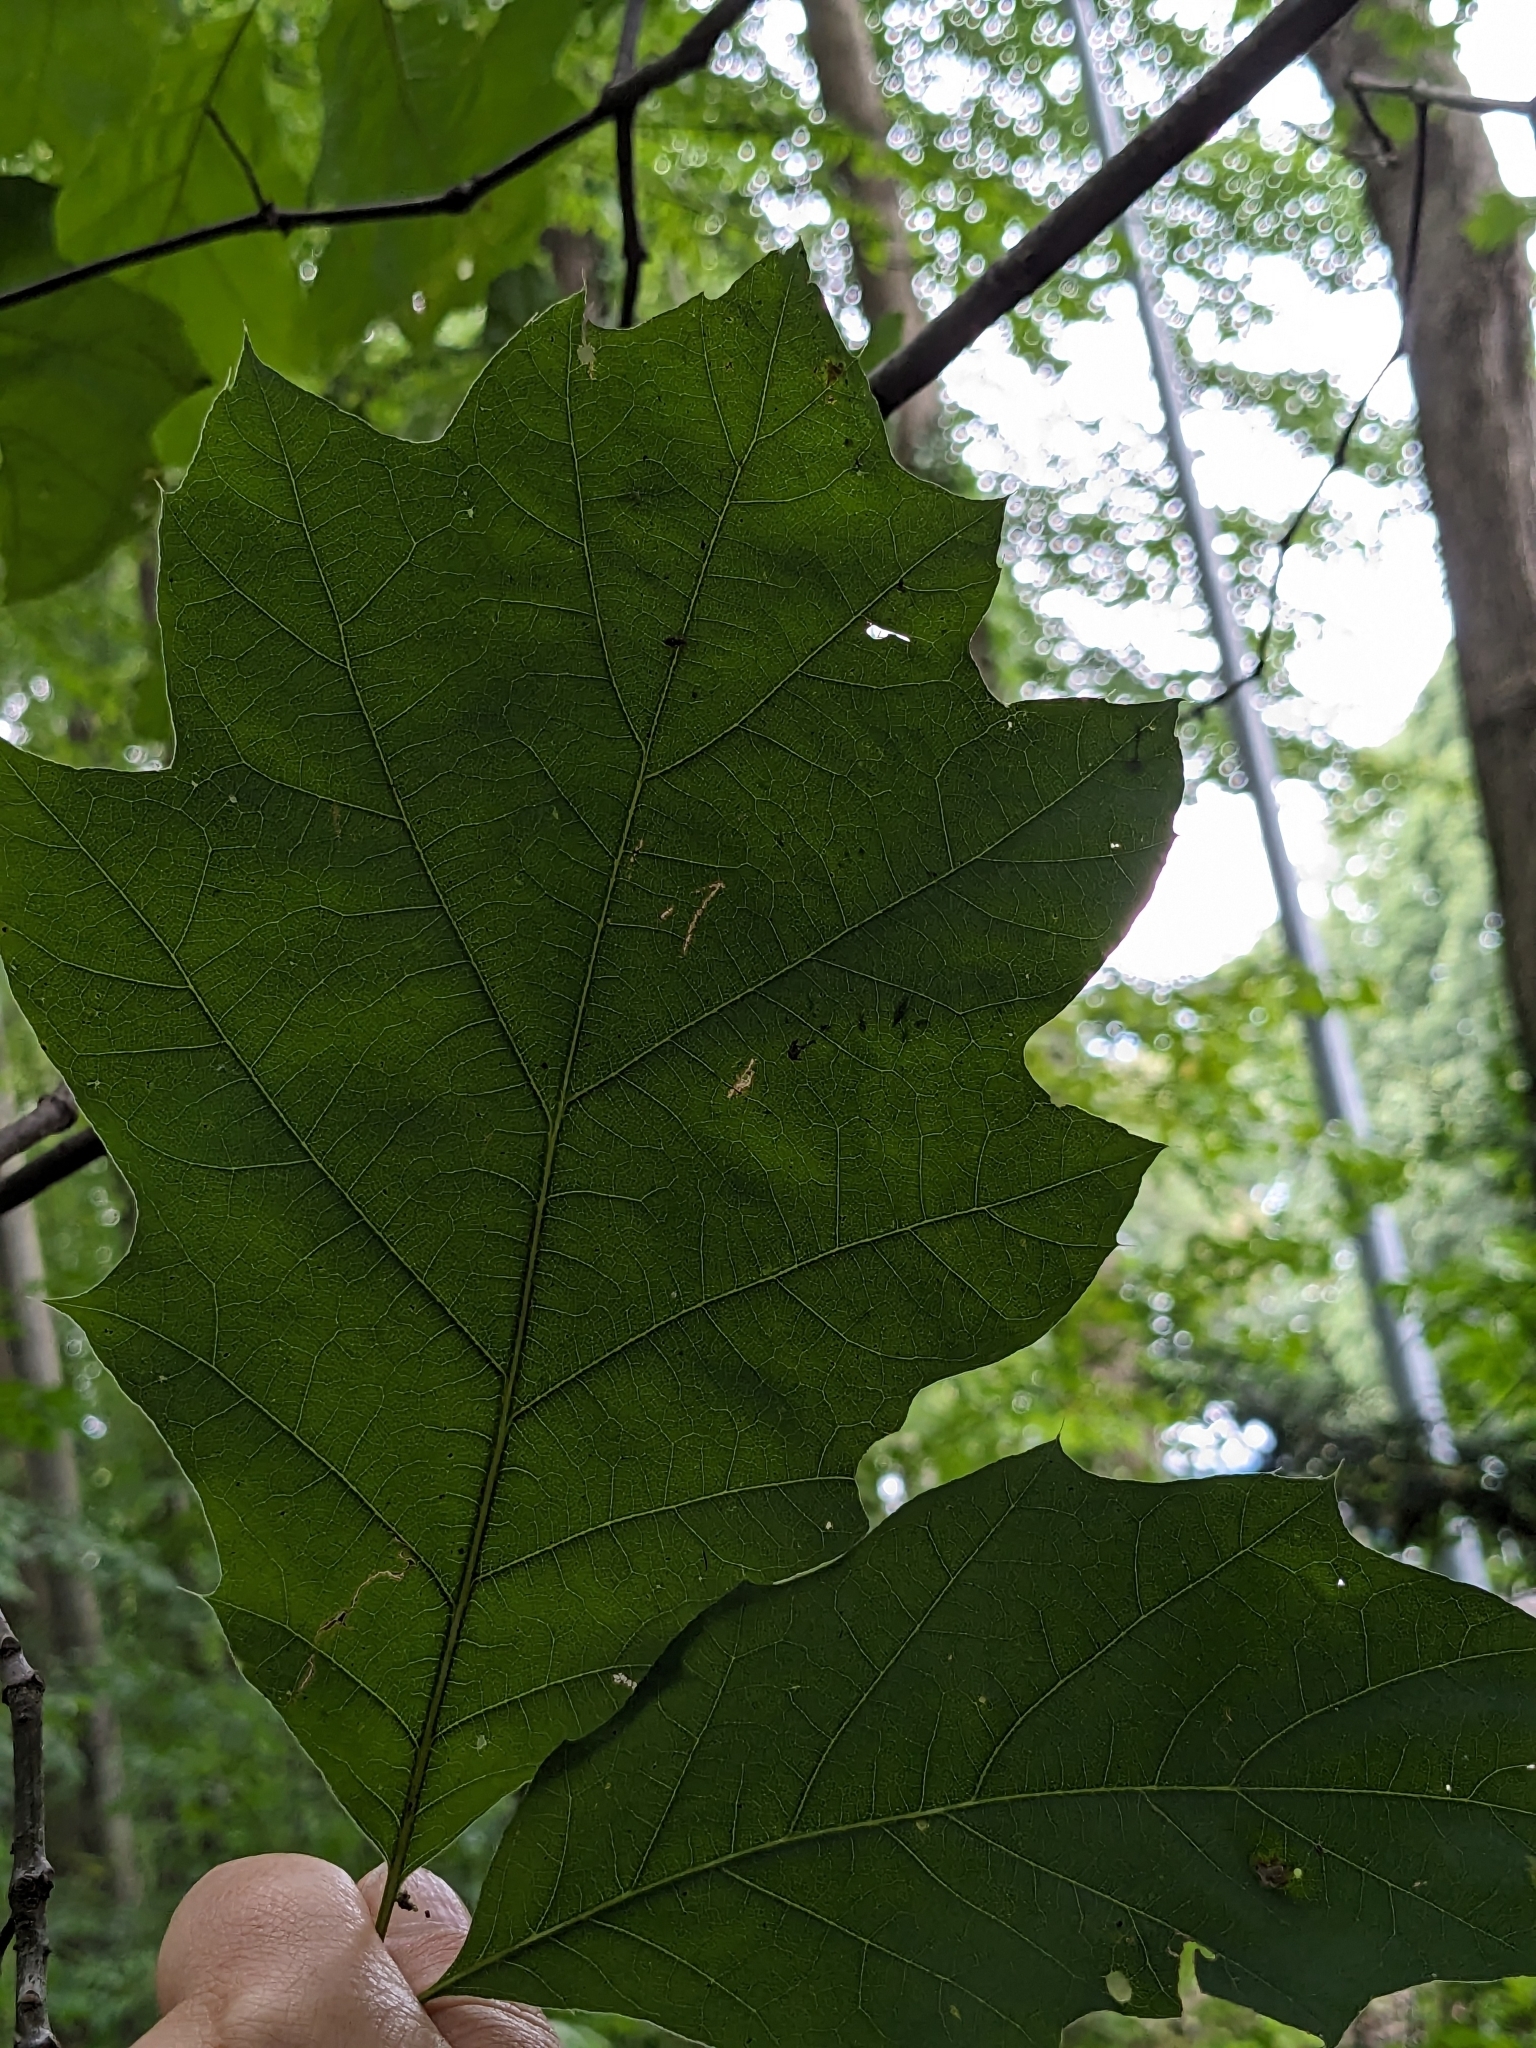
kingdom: Plantae
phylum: Tracheophyta
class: Magnoliopsida
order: Fagales
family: Fagaceae
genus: Quercus
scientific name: Quercus rubra
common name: Red oak
